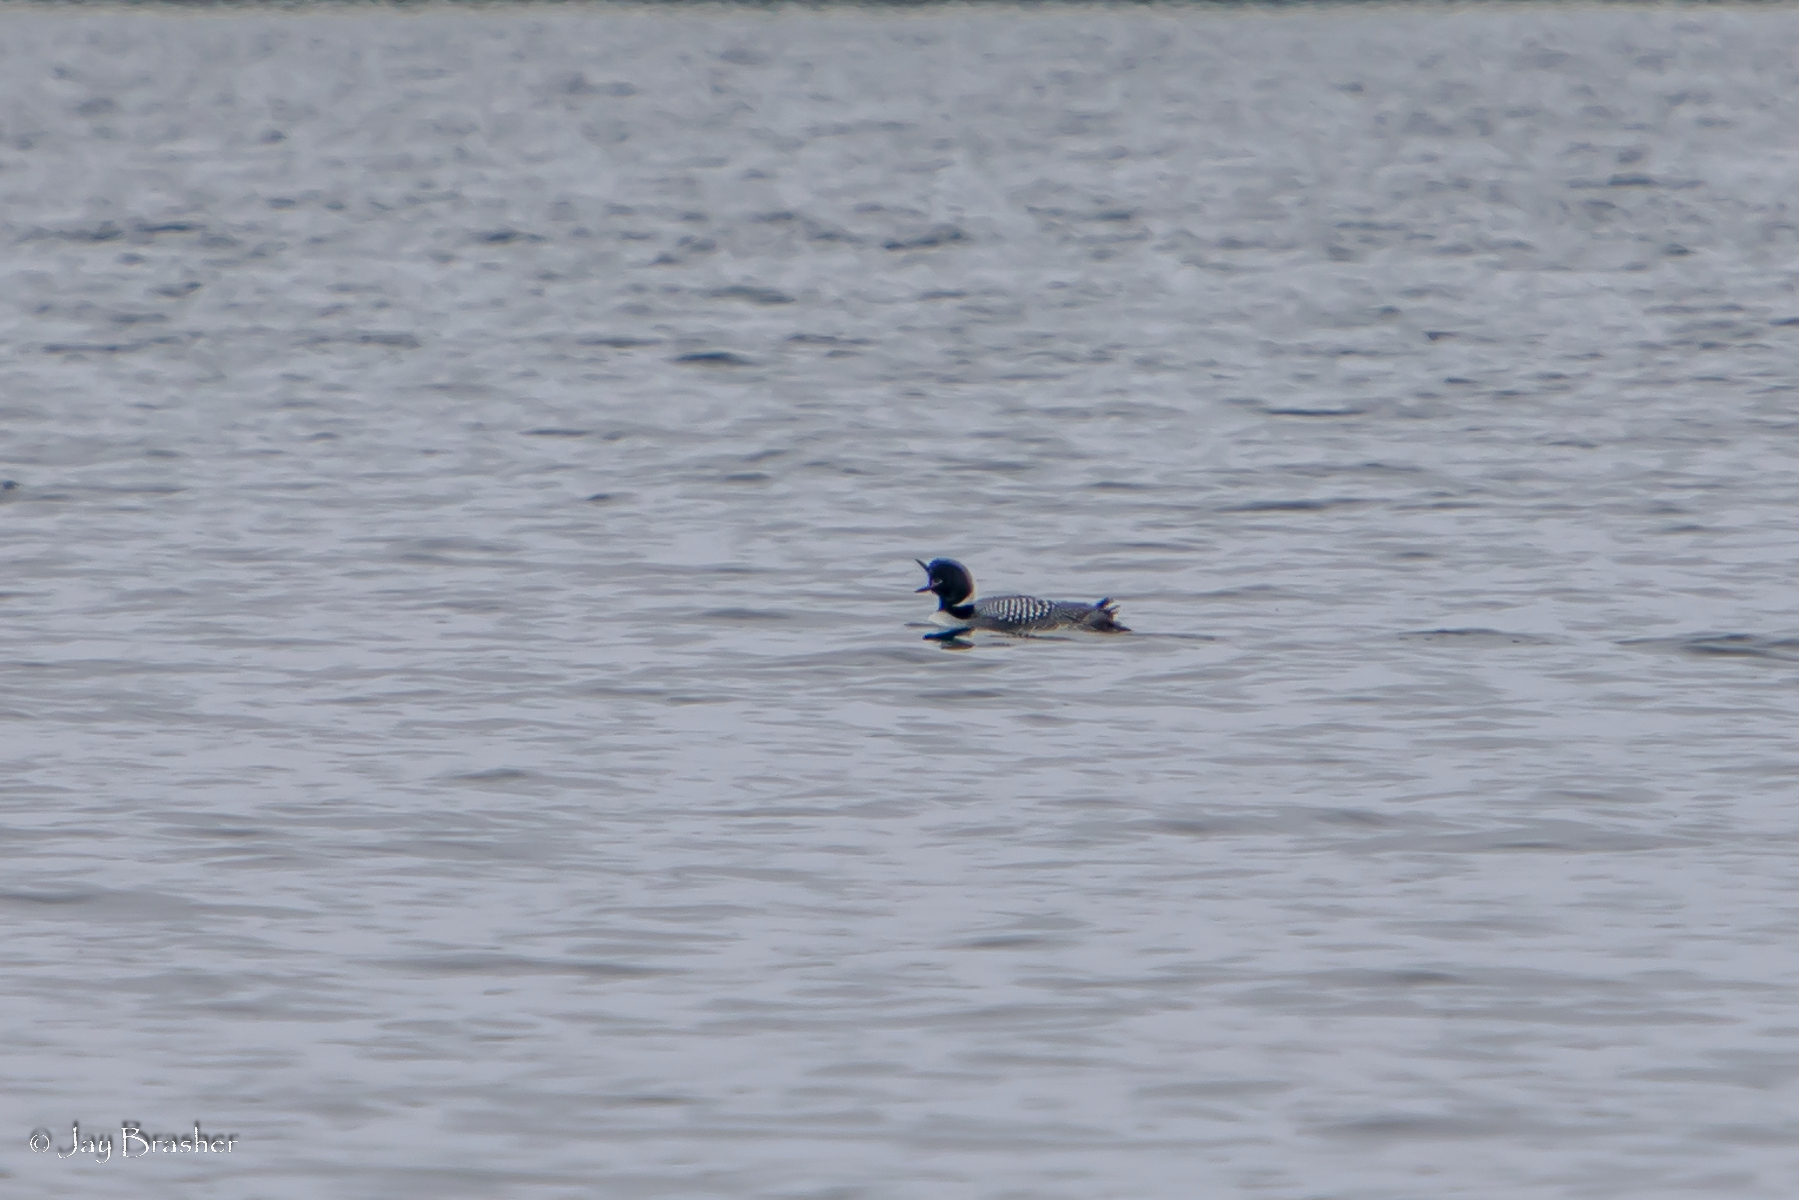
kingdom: Animalia
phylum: Chordata
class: Aves
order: Gaviiformes
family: Gaviidae
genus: Gavia
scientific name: Gavia immer
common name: Common loon
